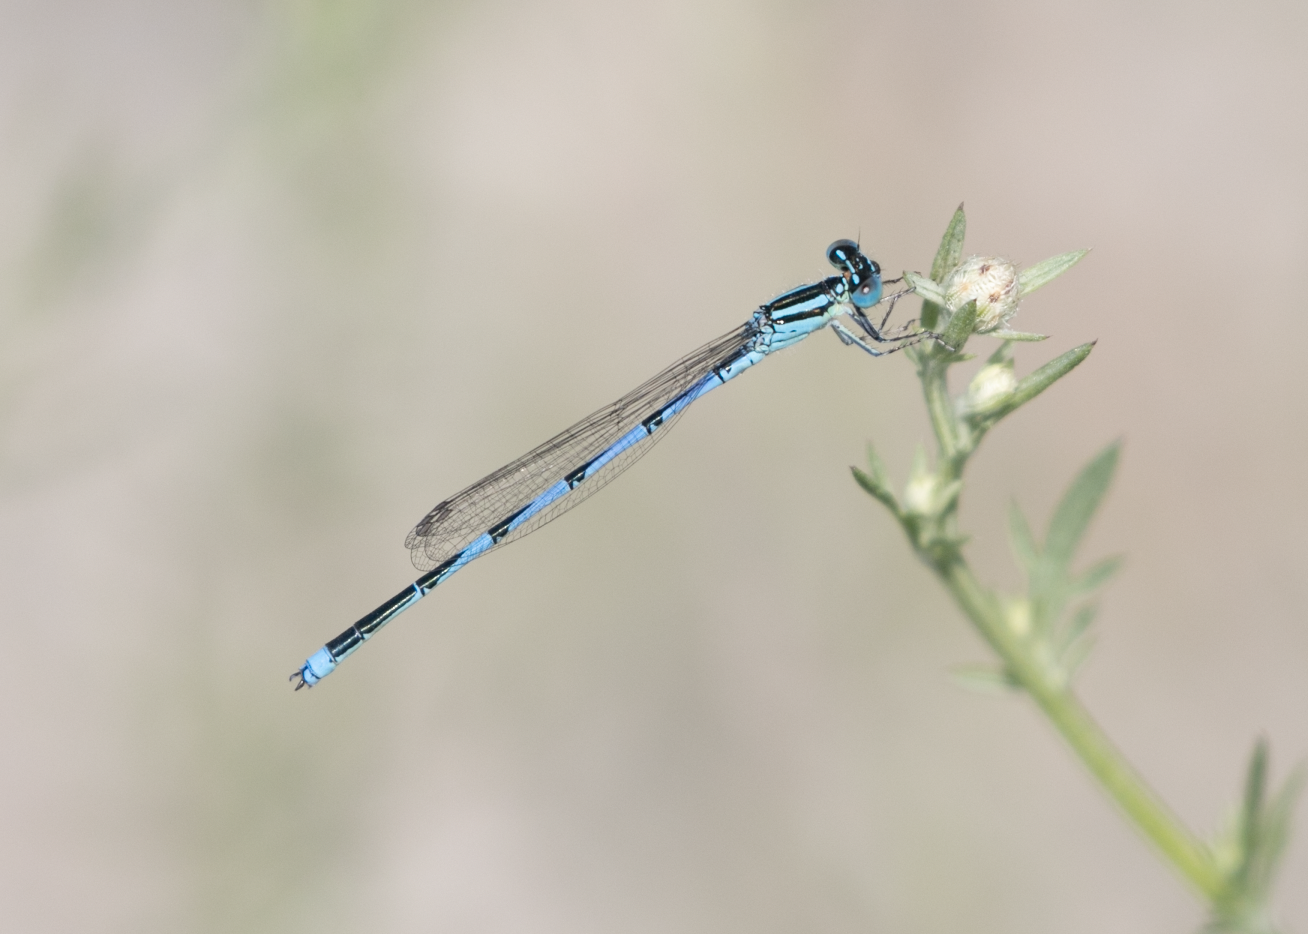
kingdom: Animalia
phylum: Arthropoda
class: Insecta
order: Odonata
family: Coenagrionidae
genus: Erythromma
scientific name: Erythromma lindenii
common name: Blue-eye
